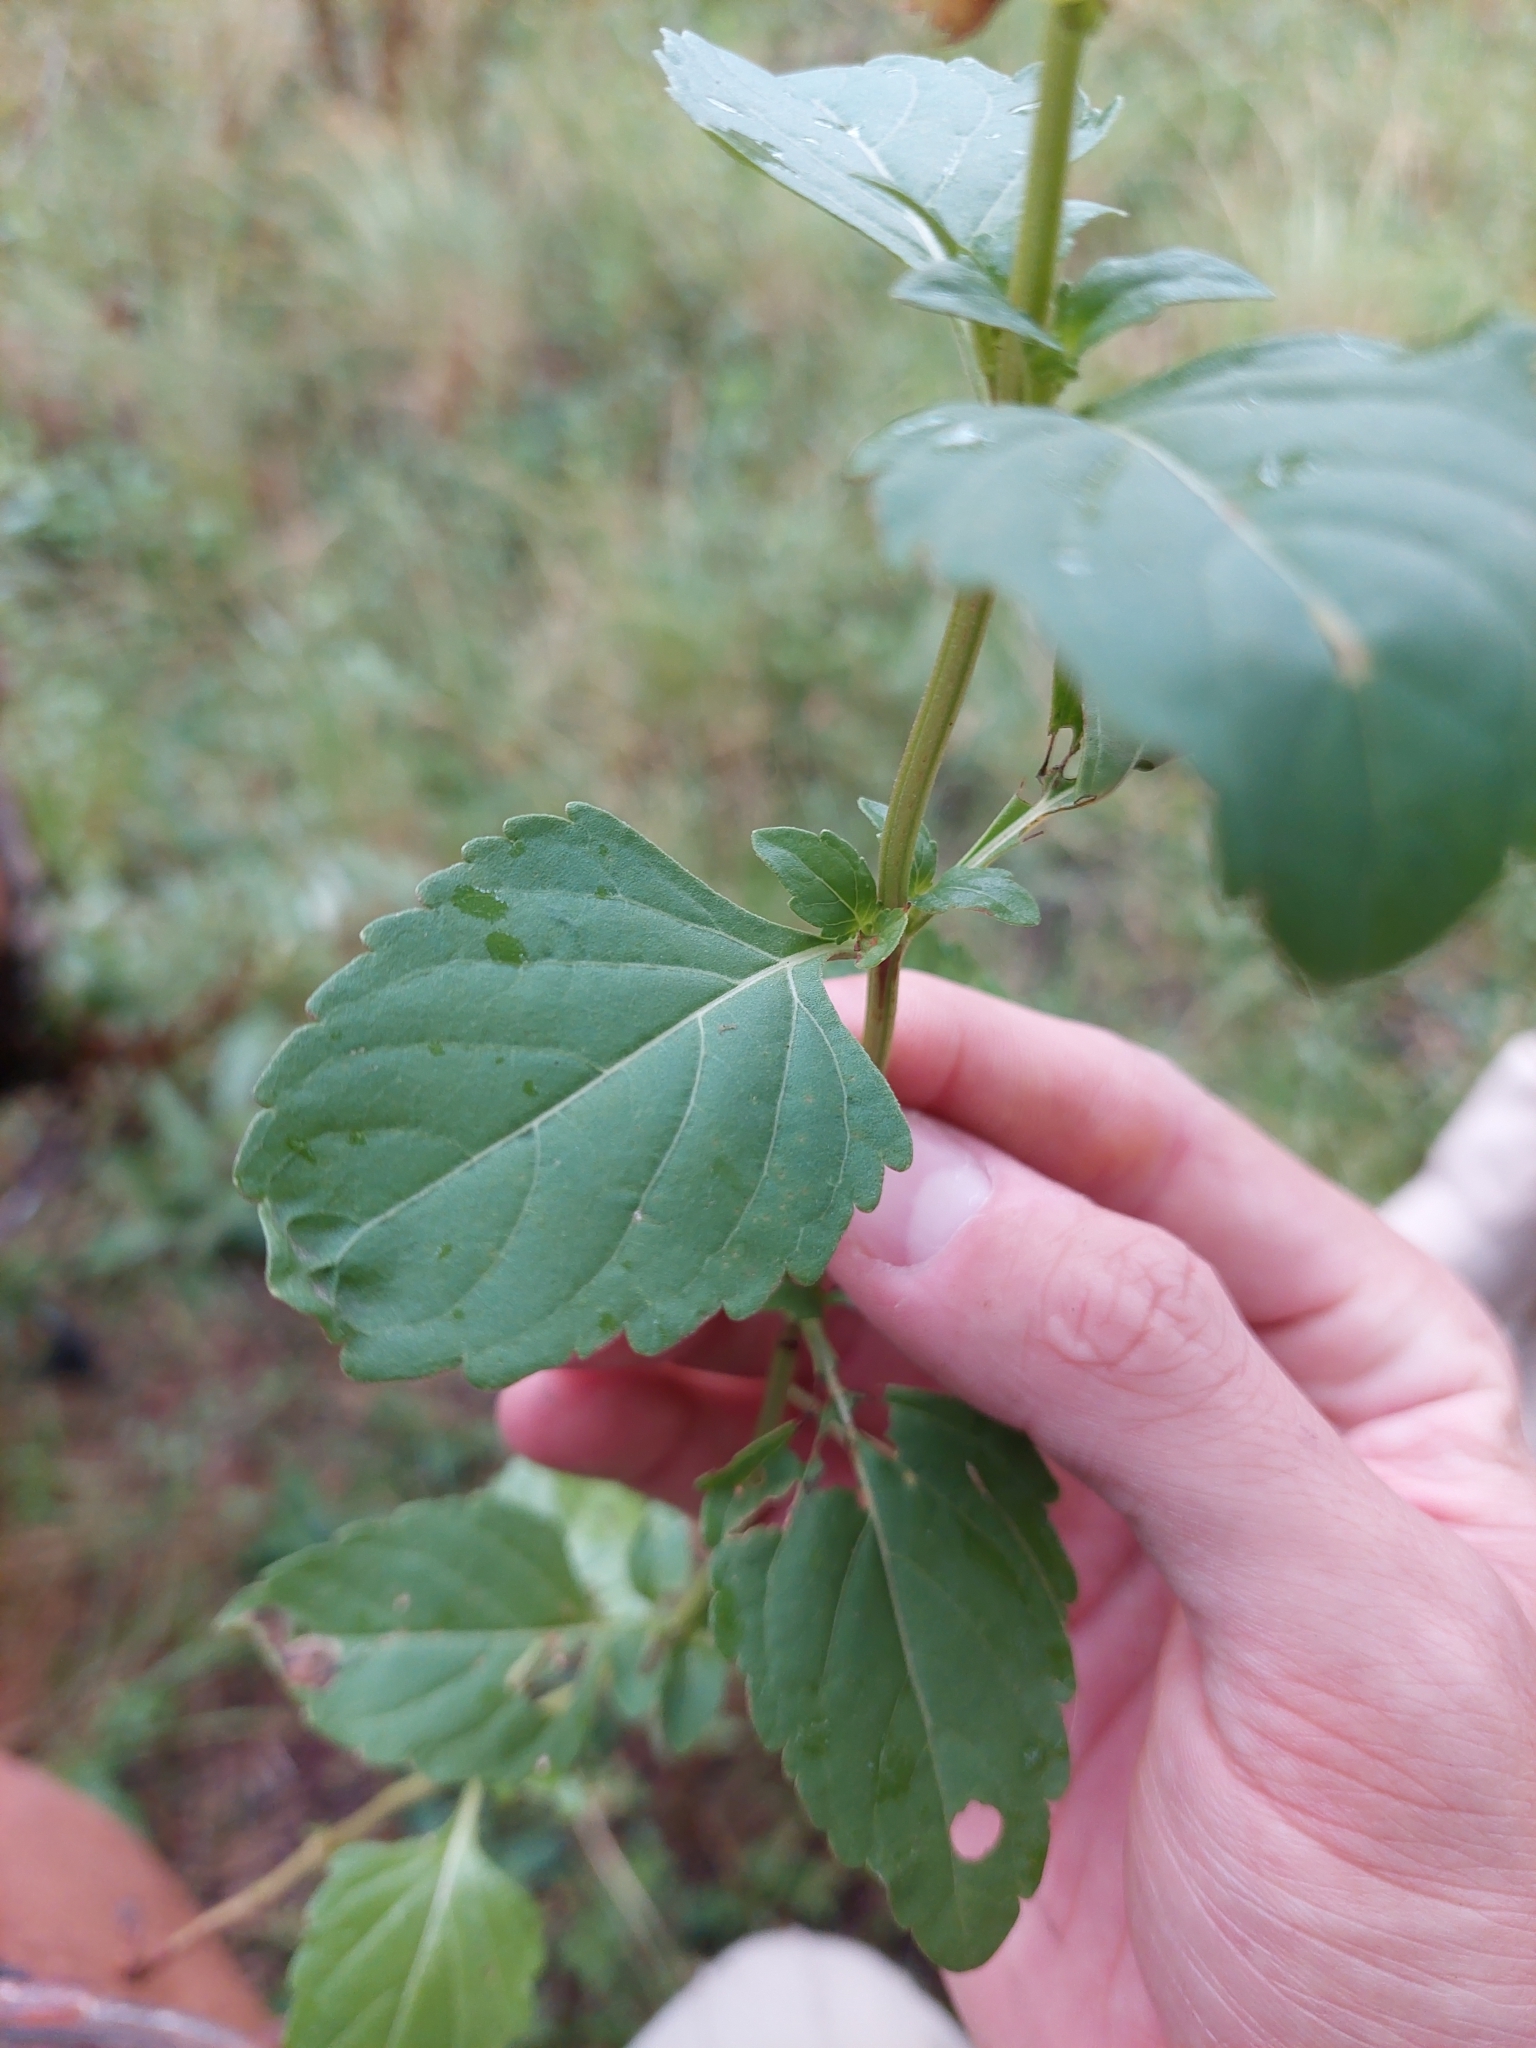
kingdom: Plantae
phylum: Tracheophyta
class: Magnoliopsida
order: Lamiales
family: Lamiaceae
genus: Ocimum
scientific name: Ocimum carnosum
